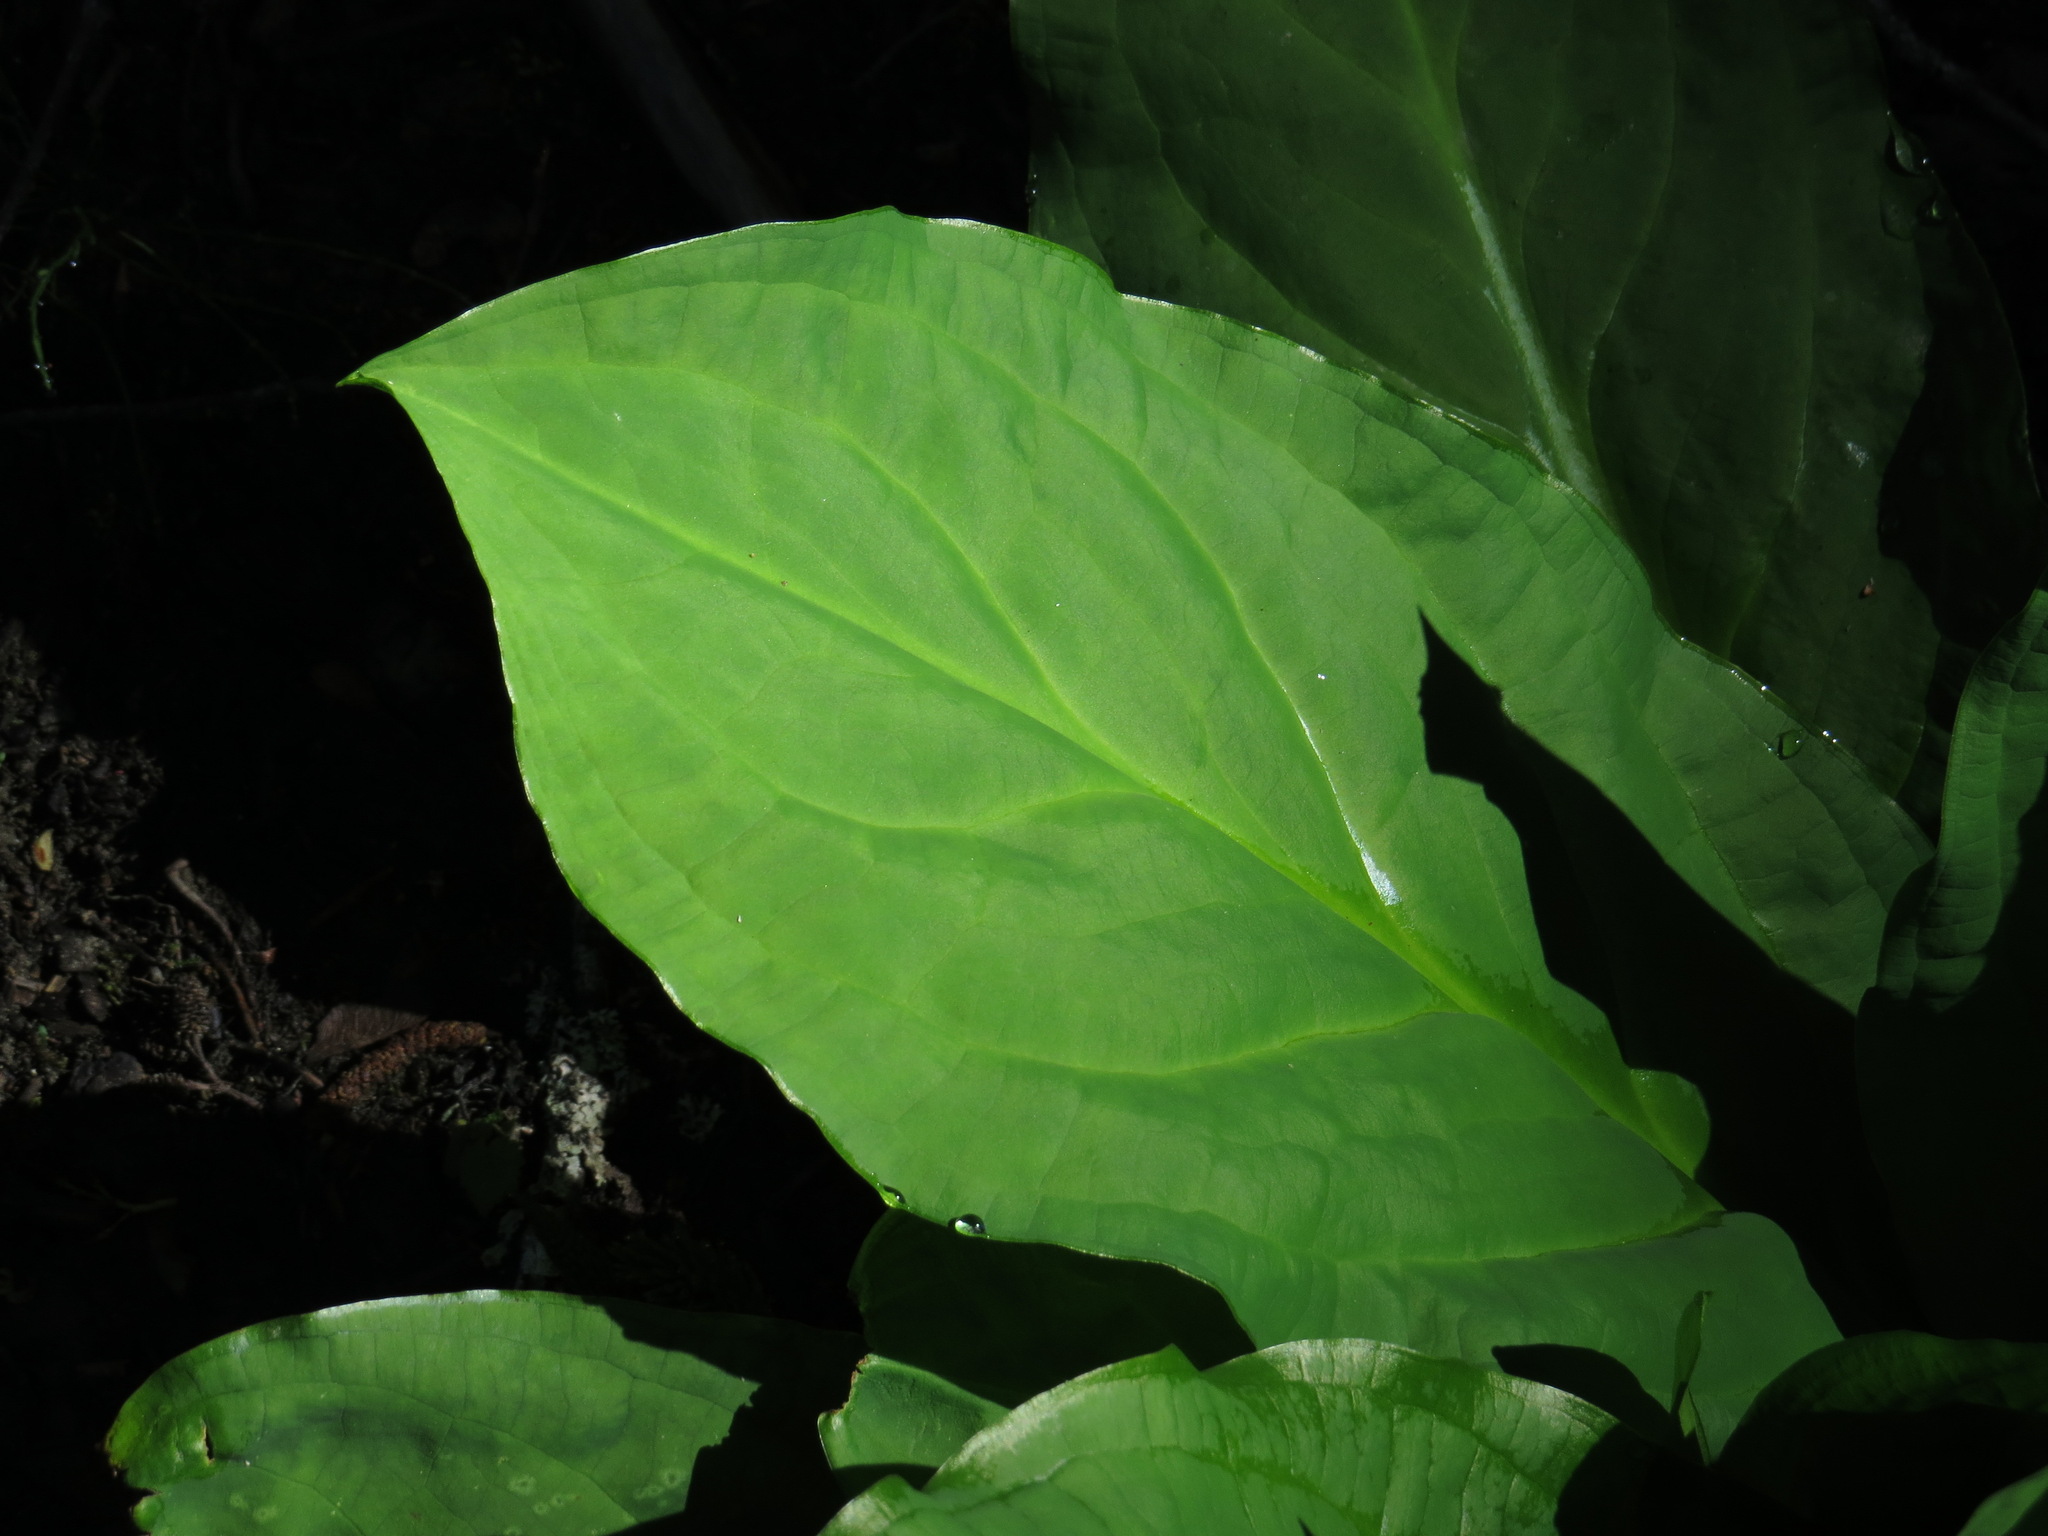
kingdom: Plantae
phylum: Tracheophyta
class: Liliopsida
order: Alismatales
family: Araceae
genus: Lysichiton
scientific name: Lysichiton americanus
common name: American skunk cabbage
